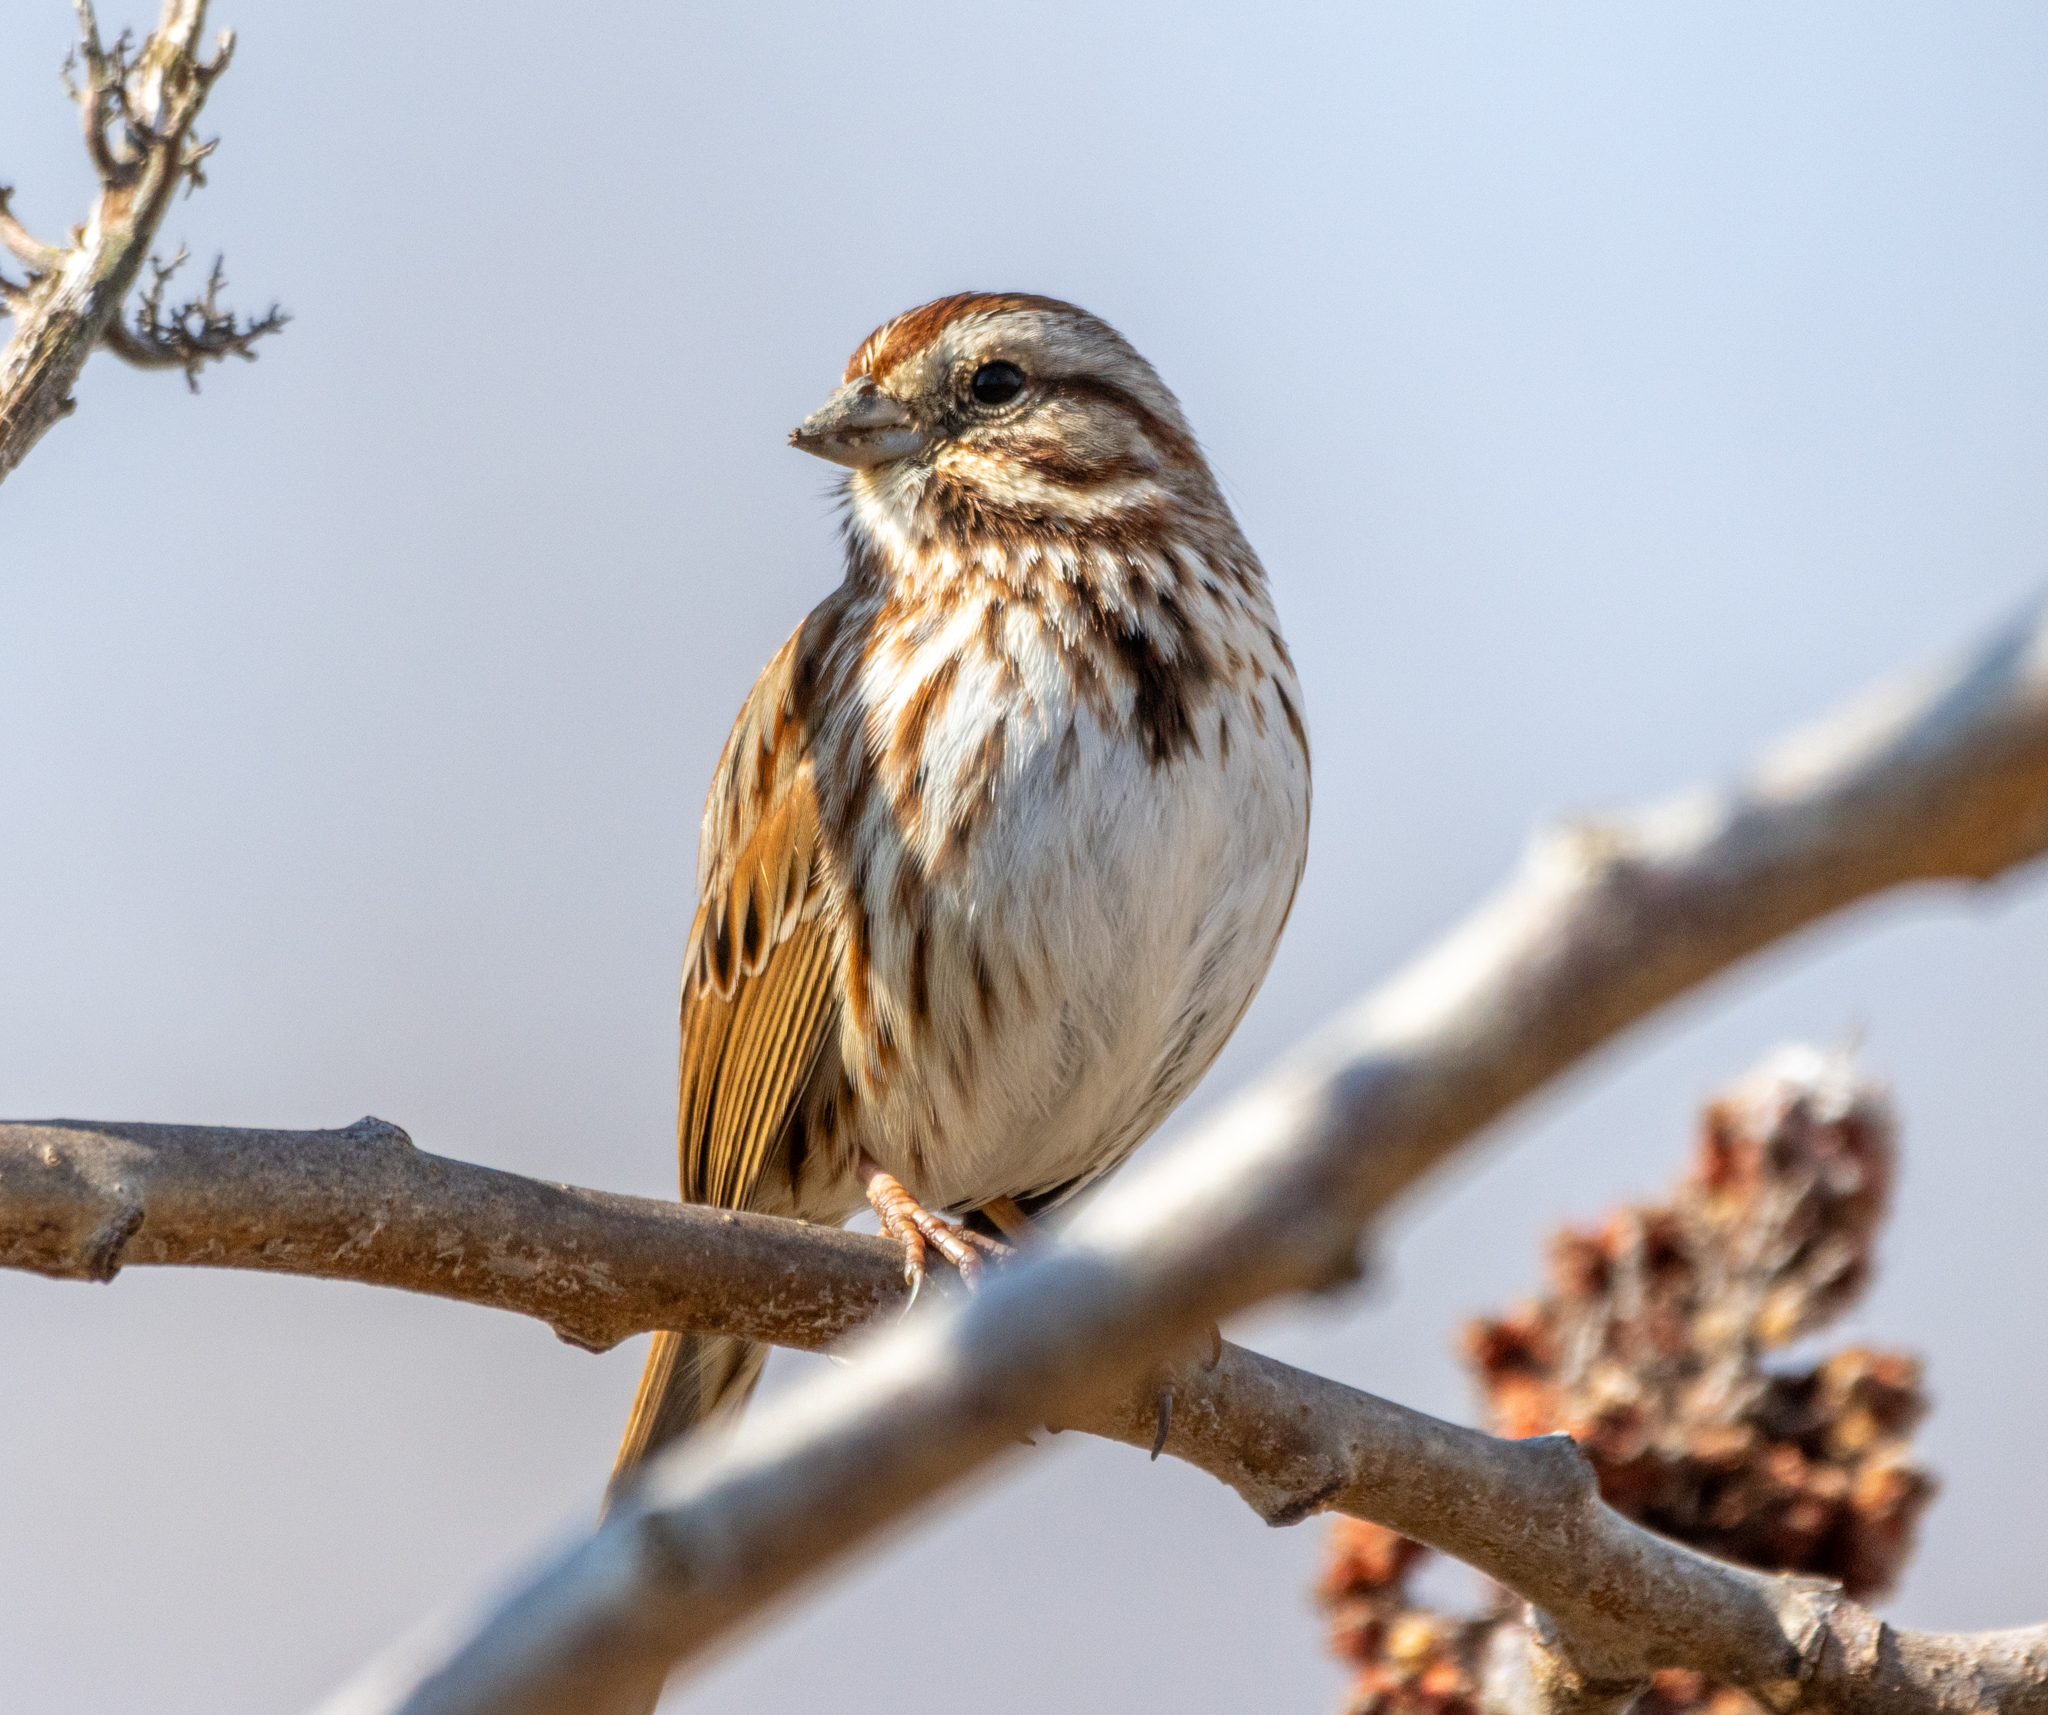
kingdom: Animalia
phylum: Chordata
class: Aves
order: Passeriformes
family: Passerellidae
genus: Melospiza
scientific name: Melospiza melodia
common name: Song sparrow
